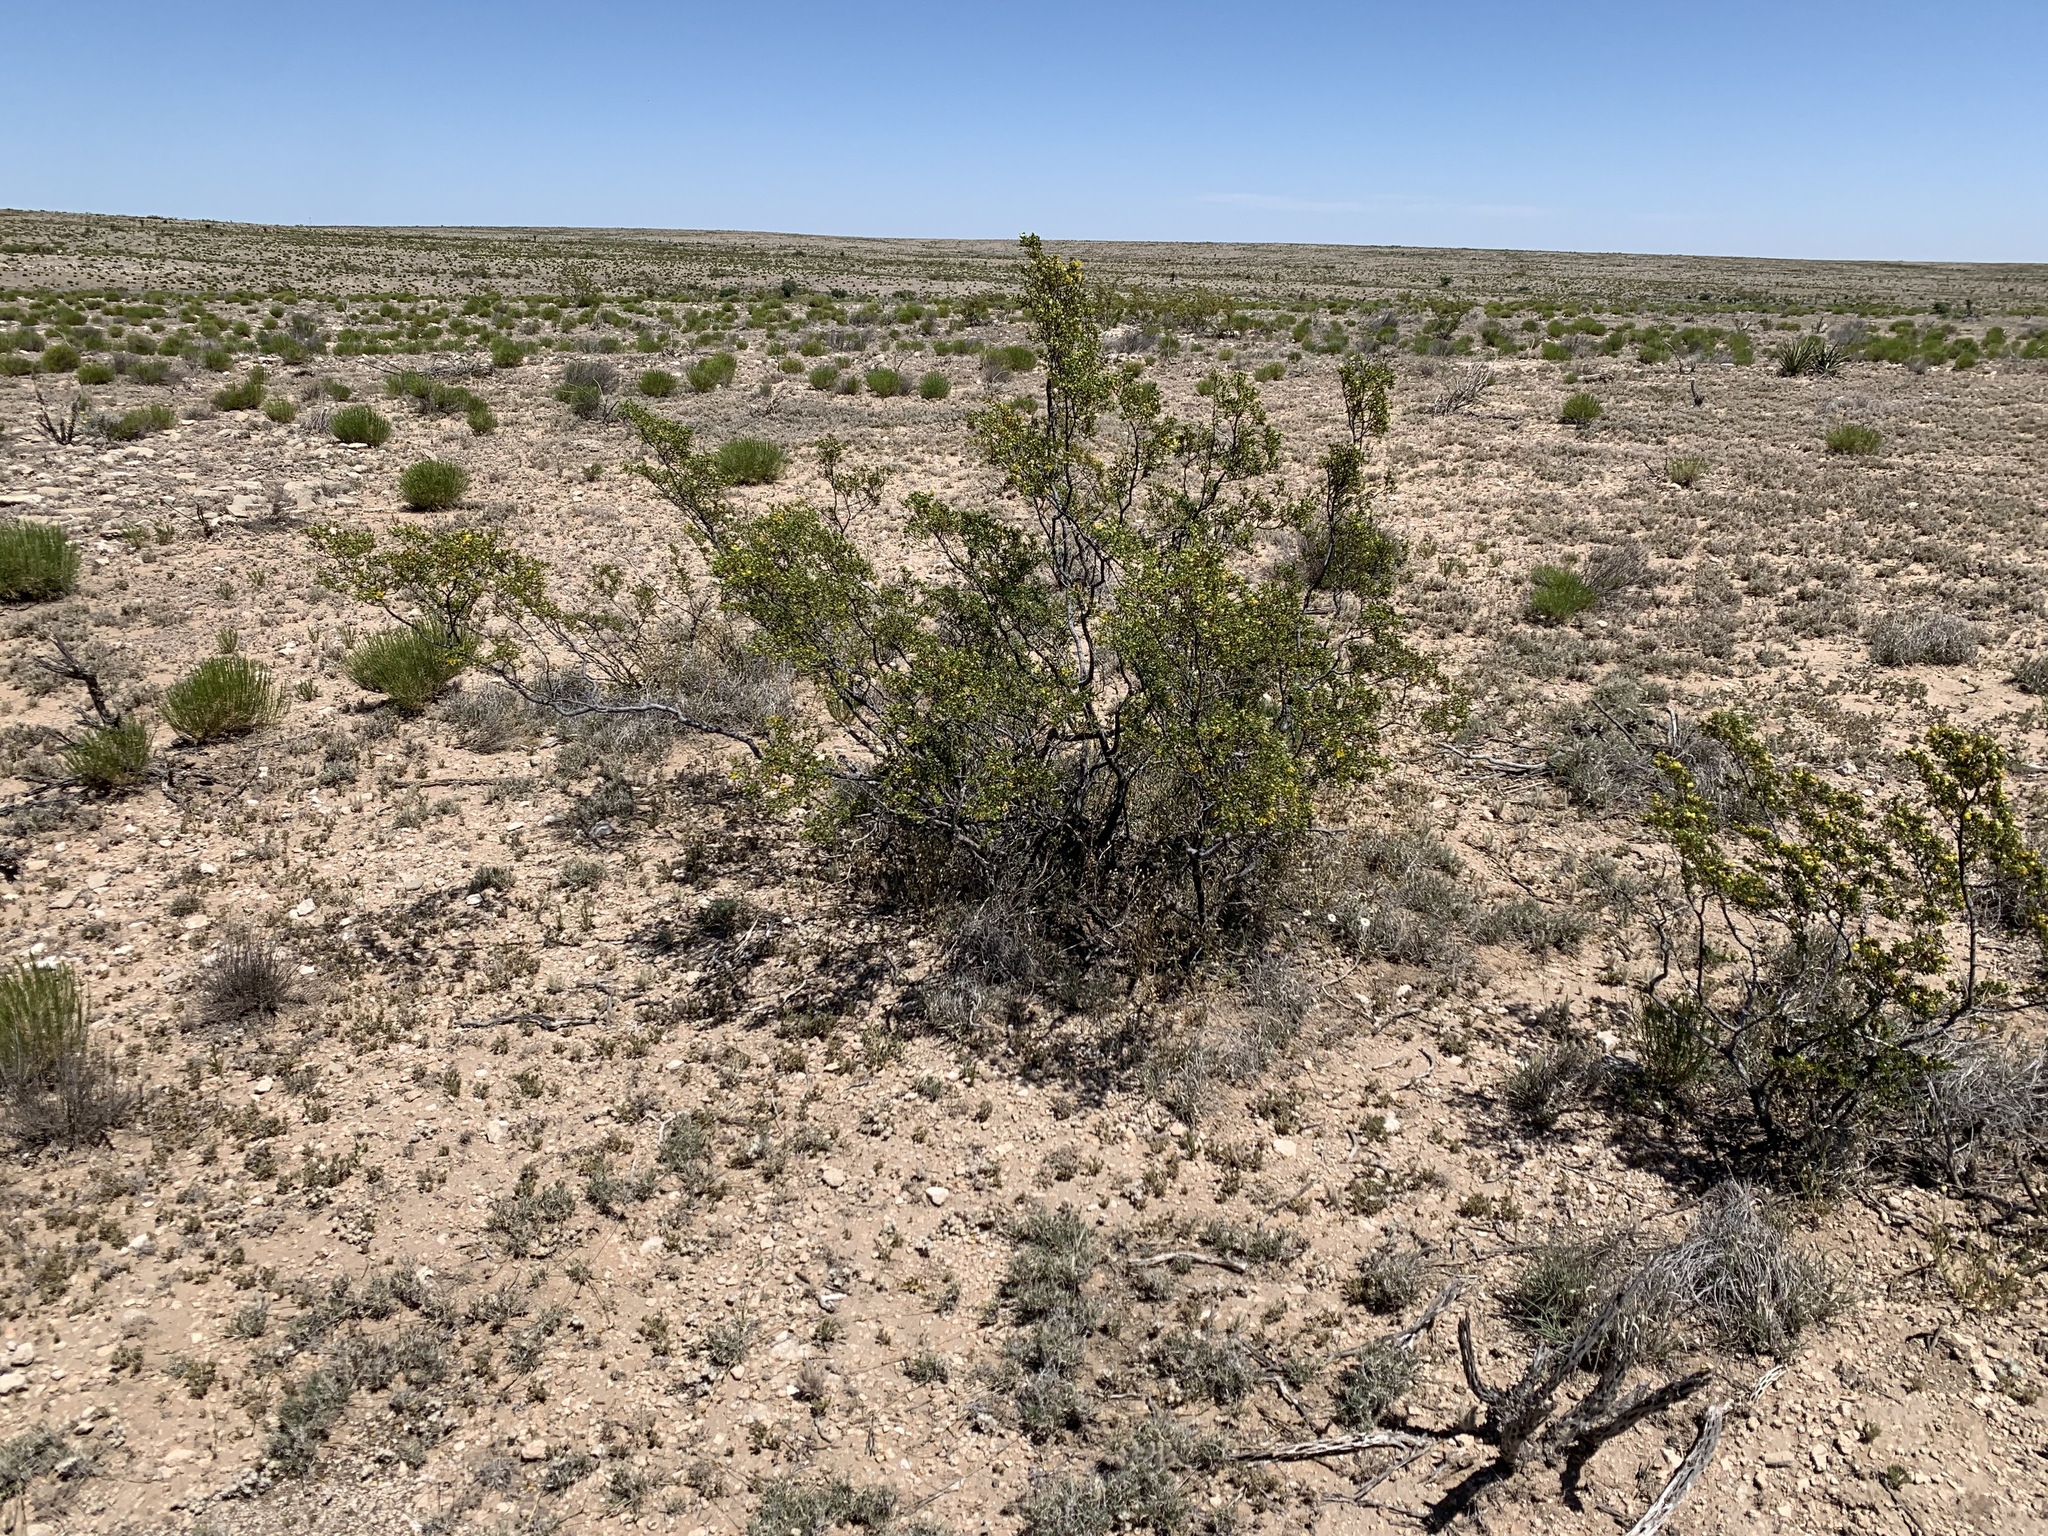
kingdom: Plantae
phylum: Tracheophyta
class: Magnoliopsida
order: Zygophyllales
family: Zygophyllaceae
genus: Larrea
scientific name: Larrea tridentata
